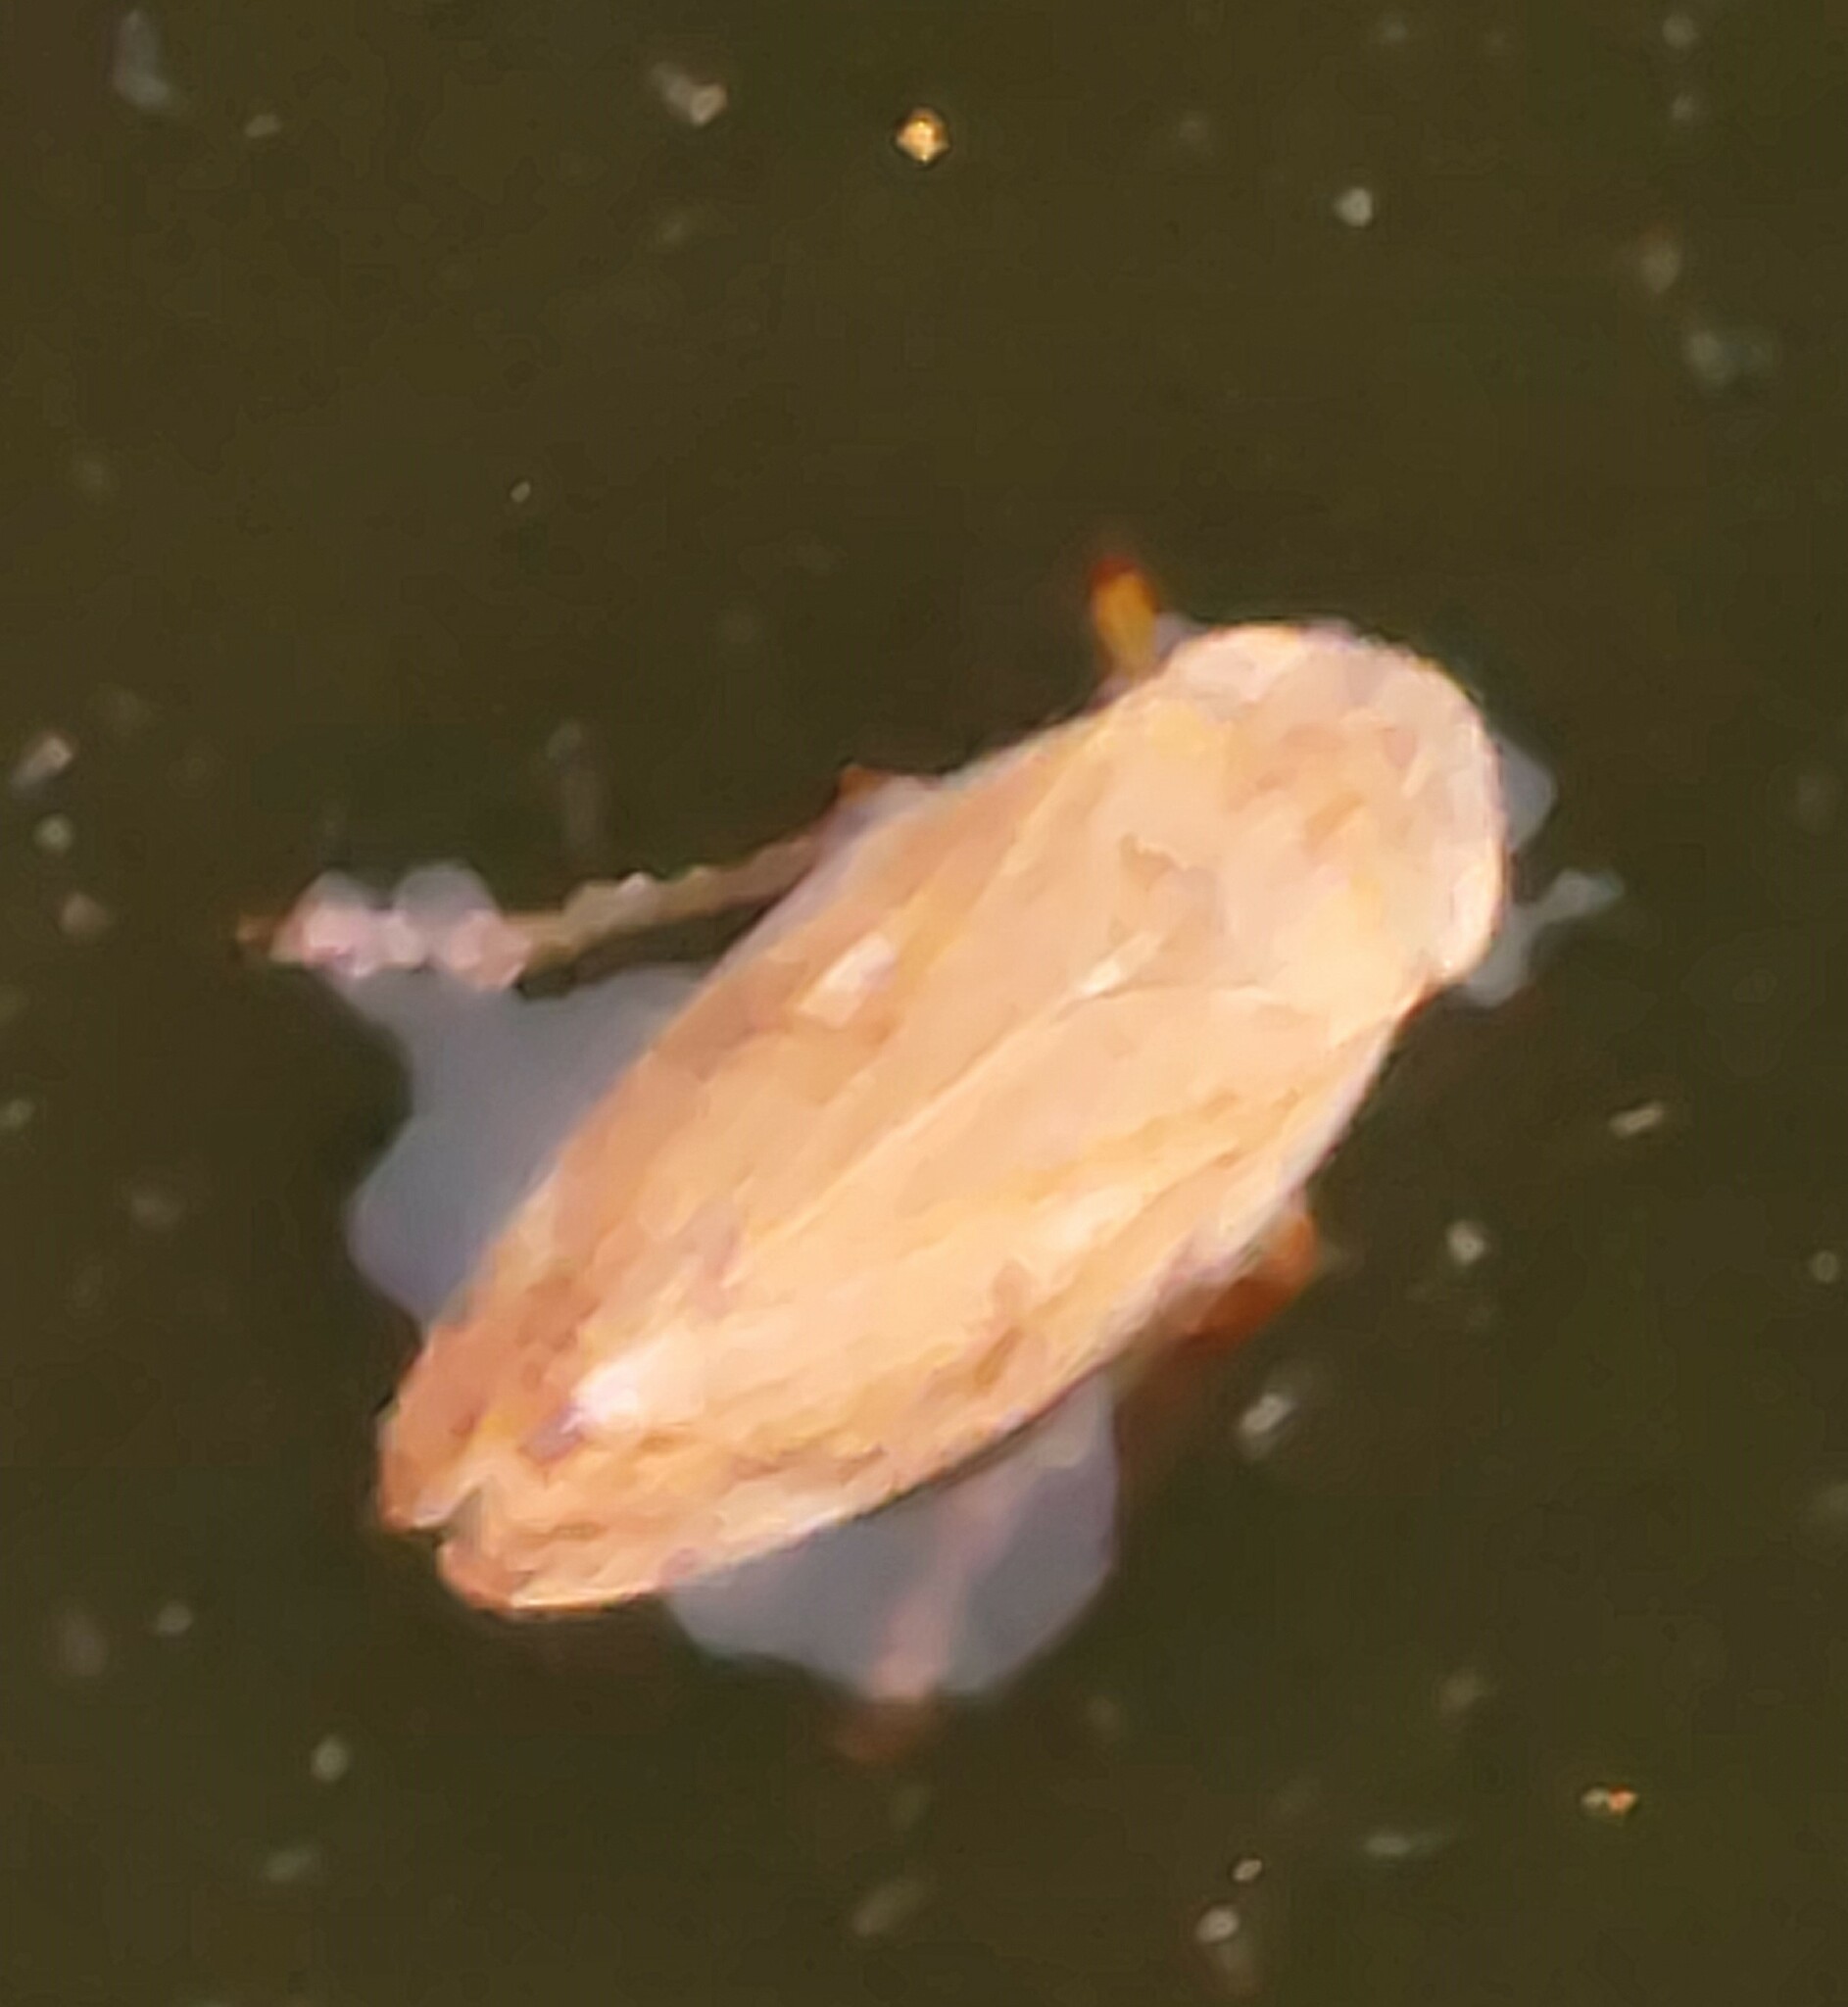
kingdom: Animalia
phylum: Arthropoda
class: Insecta
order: Hemiptera
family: Aphrophoridae
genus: Philaenus
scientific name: Philaenus spumarius
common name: Meadow spittlebug
